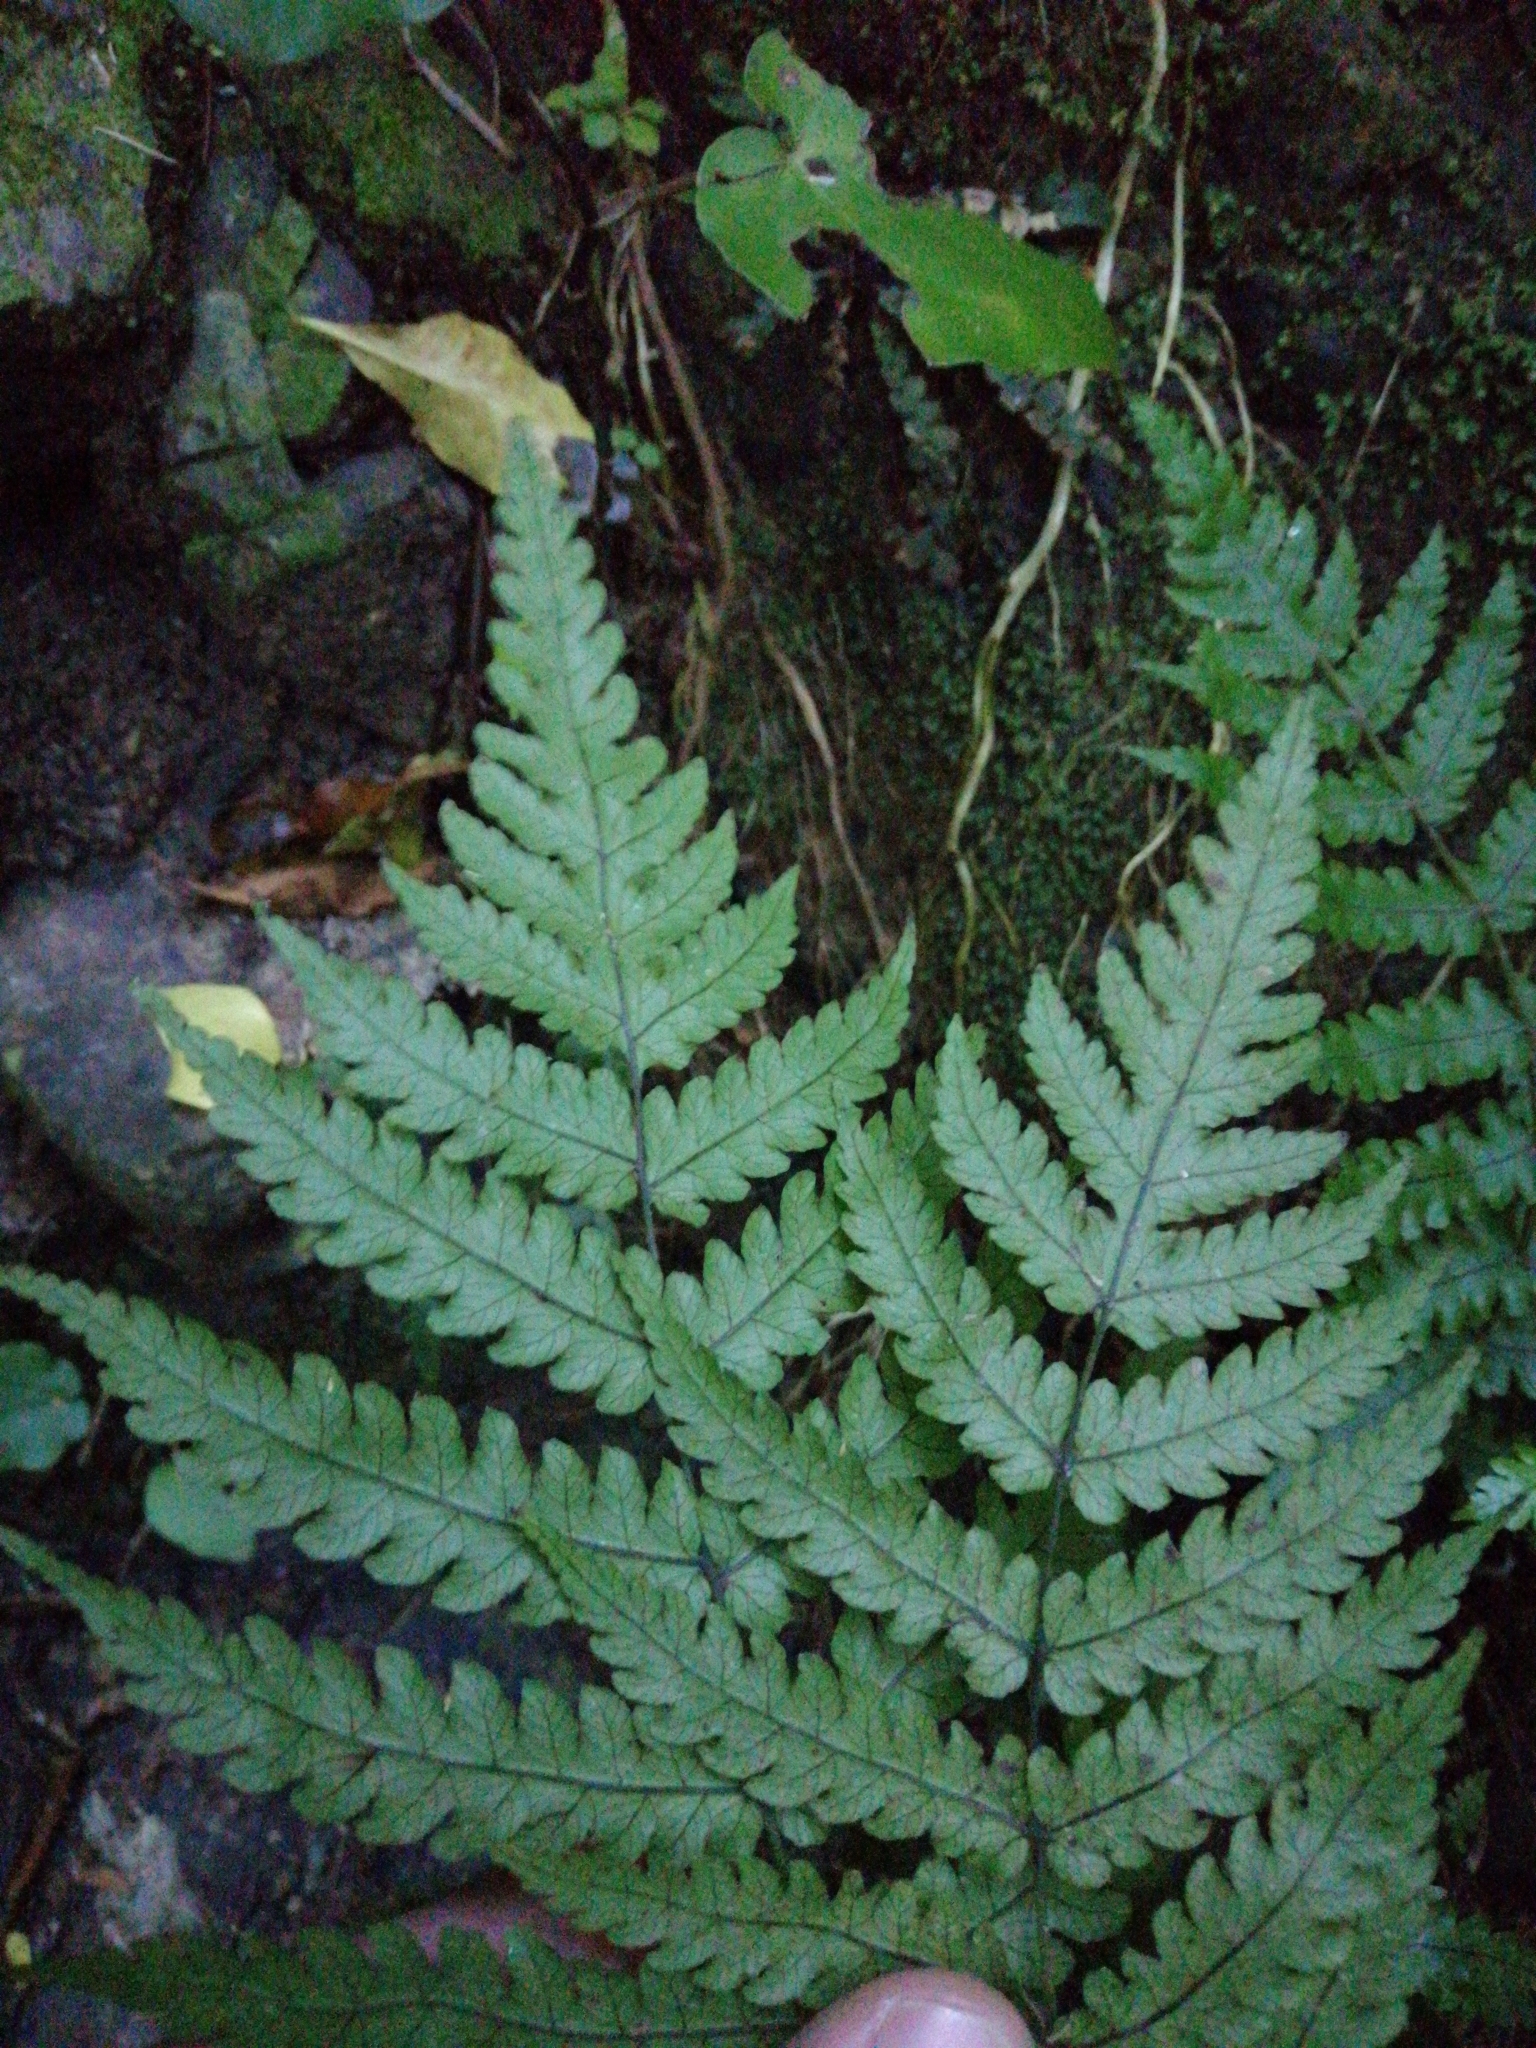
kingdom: Plantae
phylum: Tracheophyta
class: Polypodiopsida
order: Polypodiales
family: Thelypteridaceae
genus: Pakau
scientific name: Pakau pennigera
